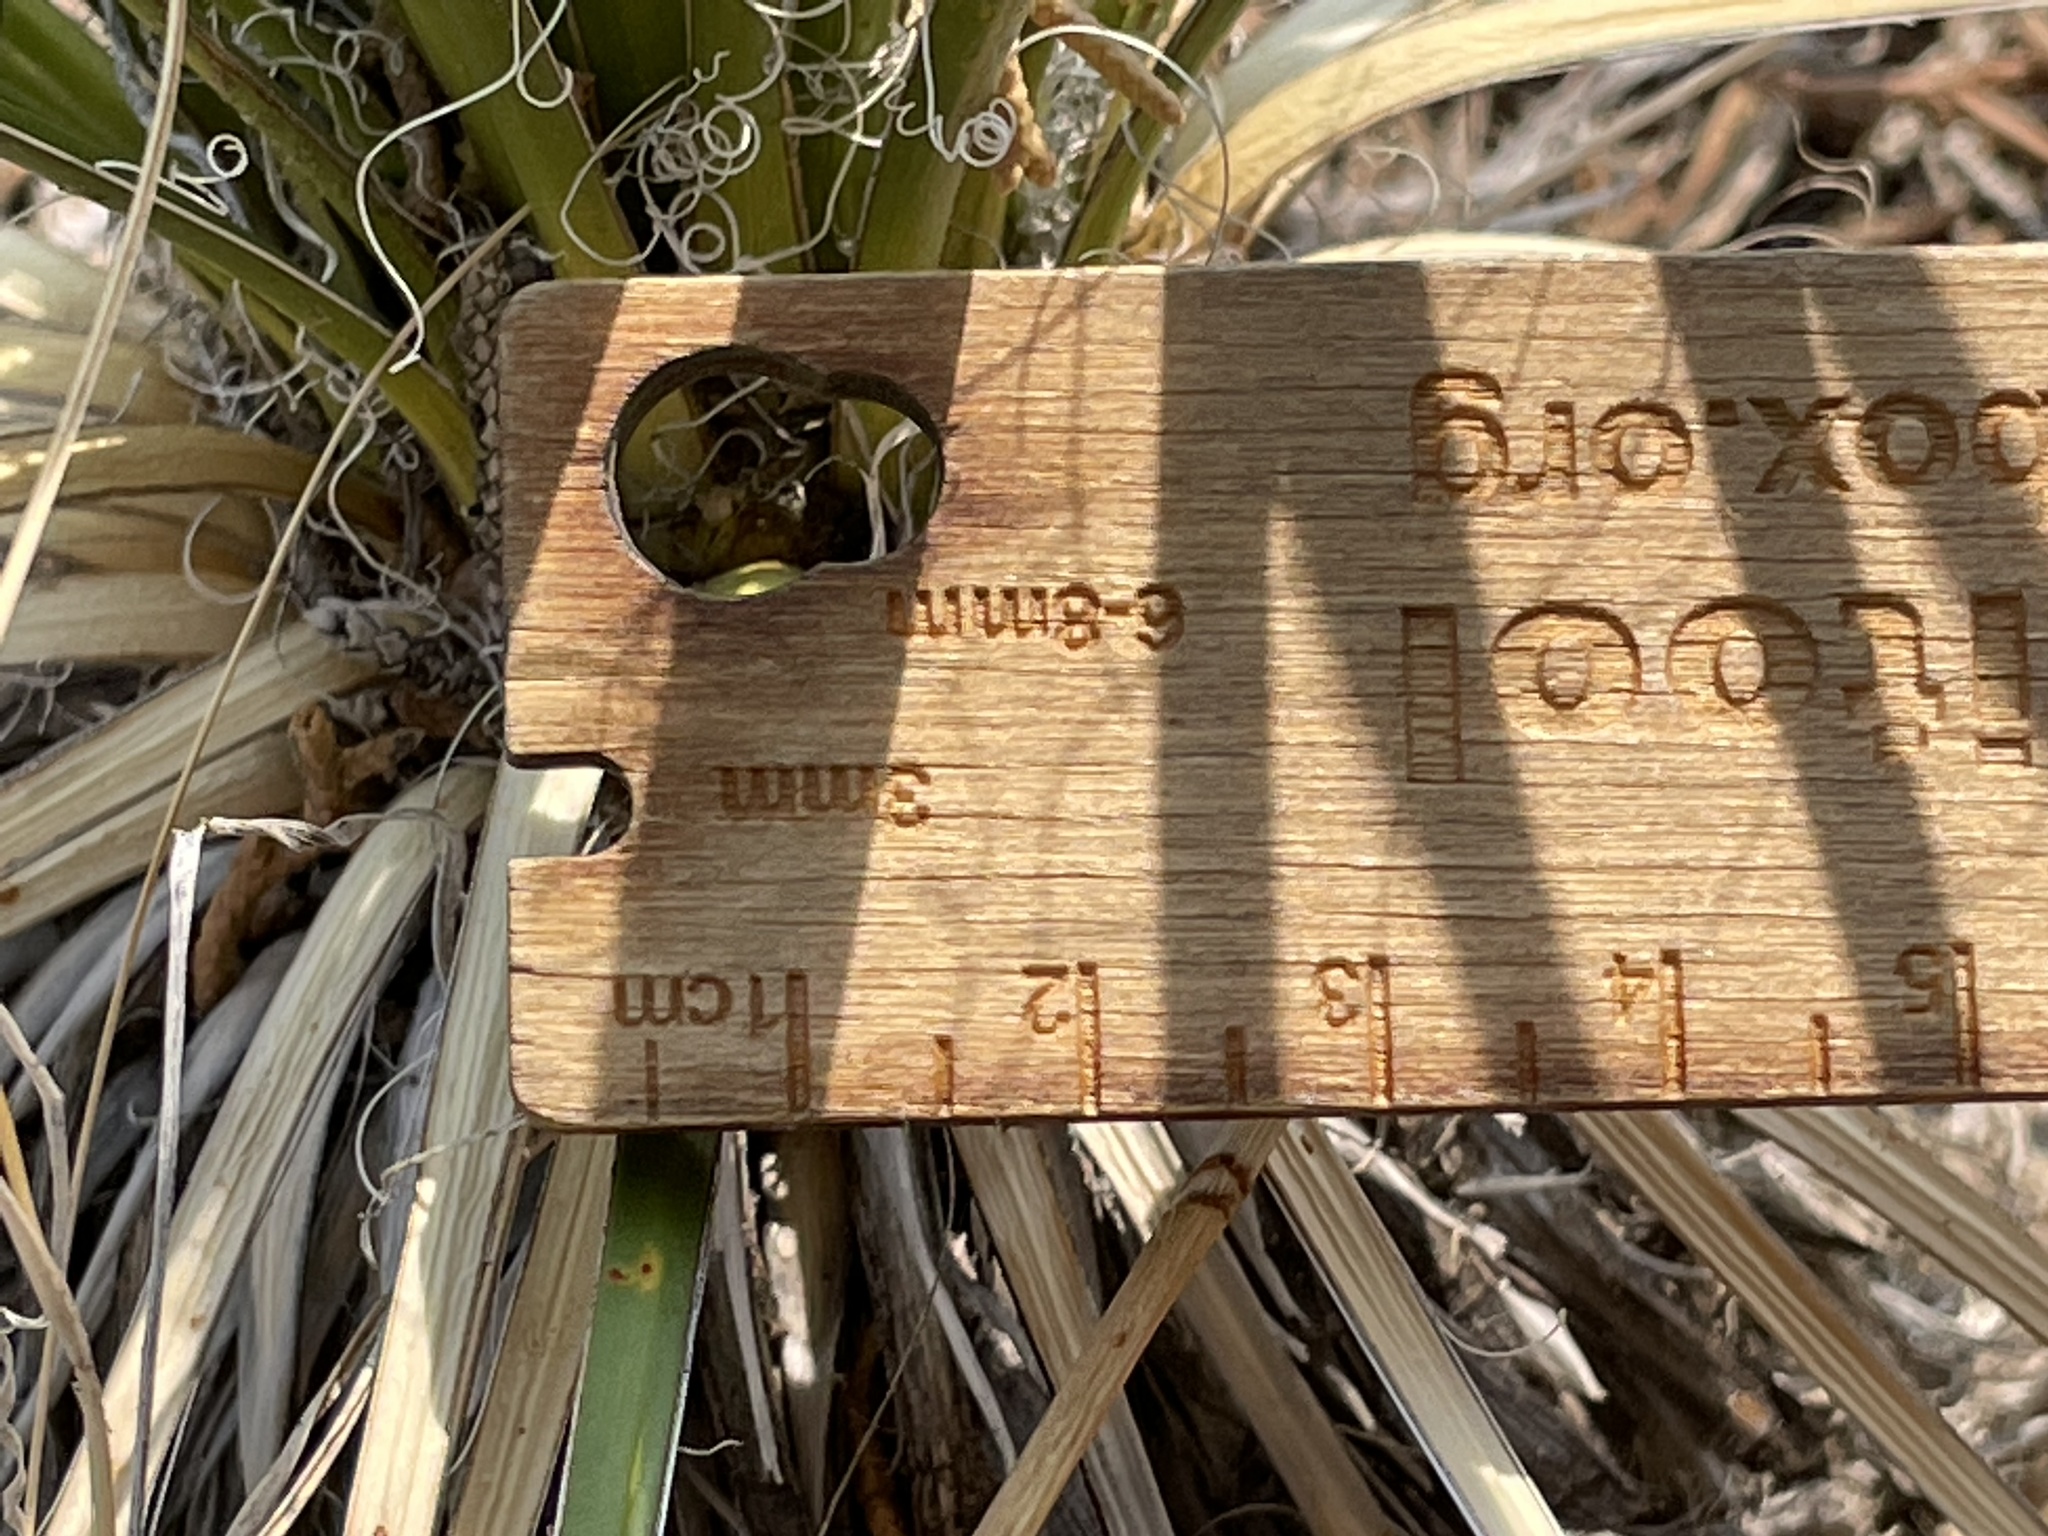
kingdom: Plantae
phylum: Tracheophyta
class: Liliopsida
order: Asparagales
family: Asparagaceae
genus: Yucca
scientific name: Yucca baileyi
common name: Alpine yucca
